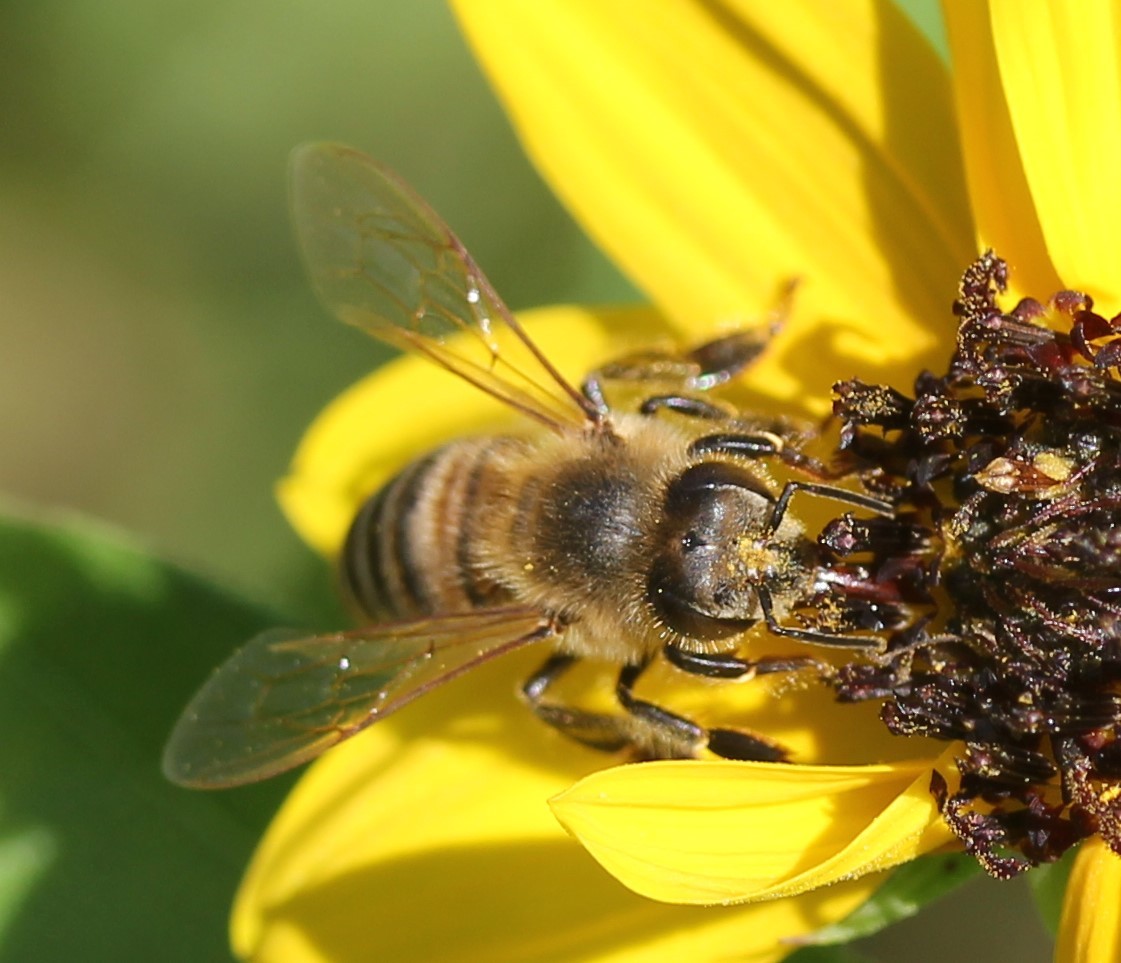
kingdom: Animalia
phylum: Arthropoda
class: Insecta
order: Hymenoptera
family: Apidae
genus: Apis
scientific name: Apis mellifera
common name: Honey bee
